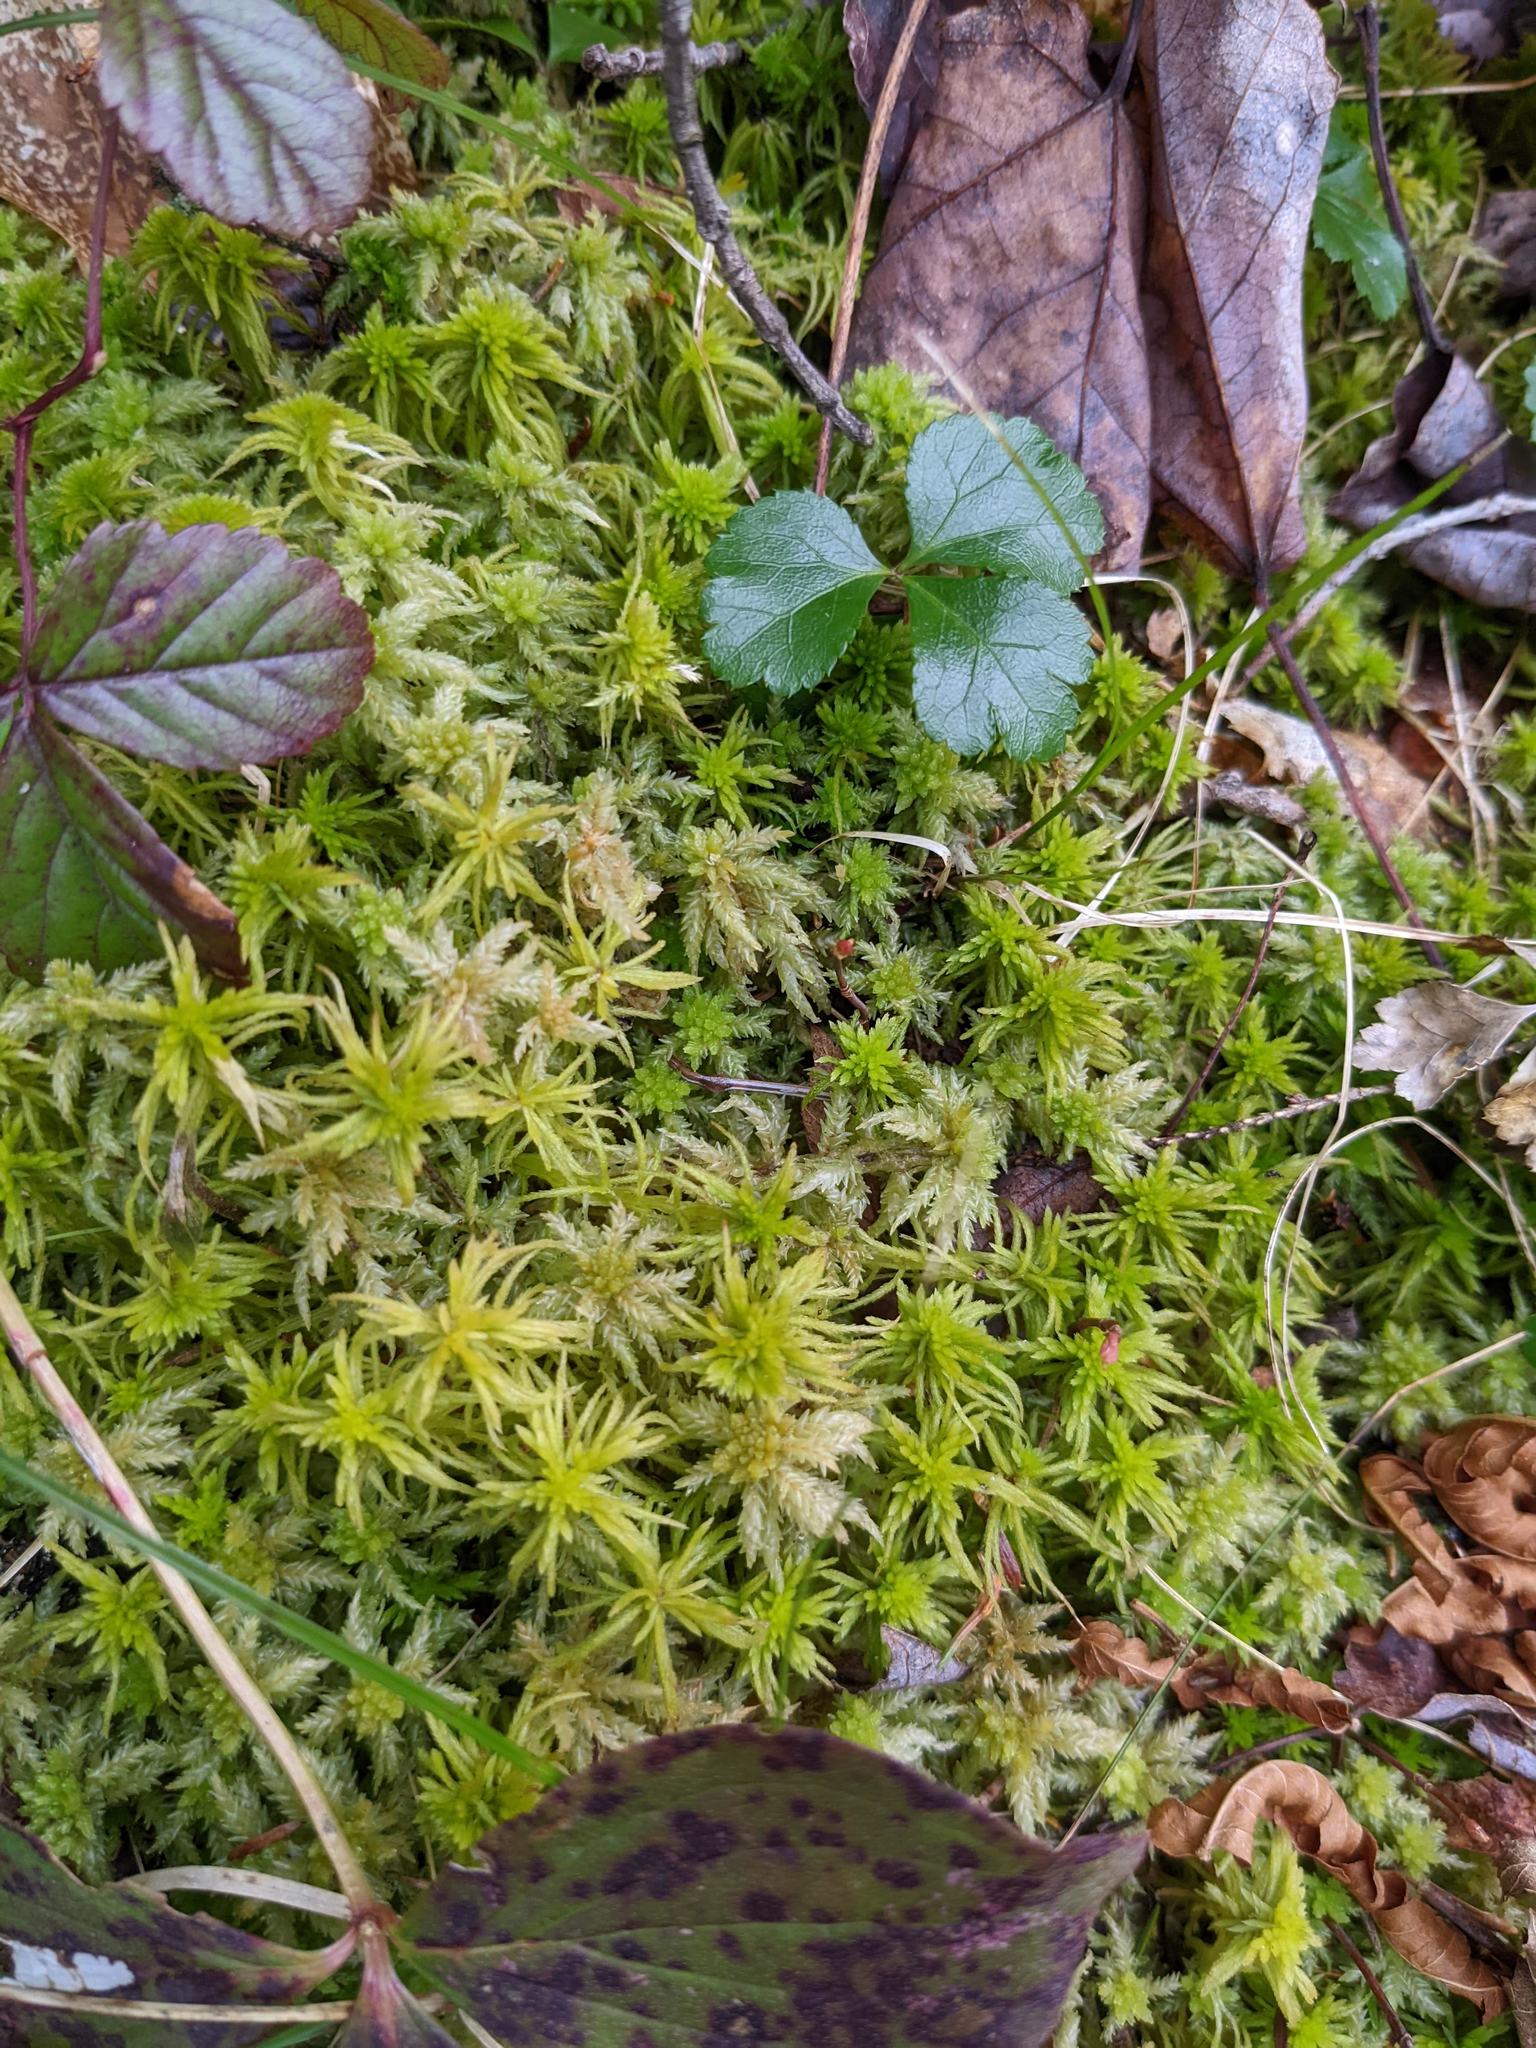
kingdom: Plantae
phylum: Tracheophyta
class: Magnoliopsida
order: Ranunculales
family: Ranunculaceae
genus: Coptis
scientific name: Coptis trifolia
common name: Canker-root
